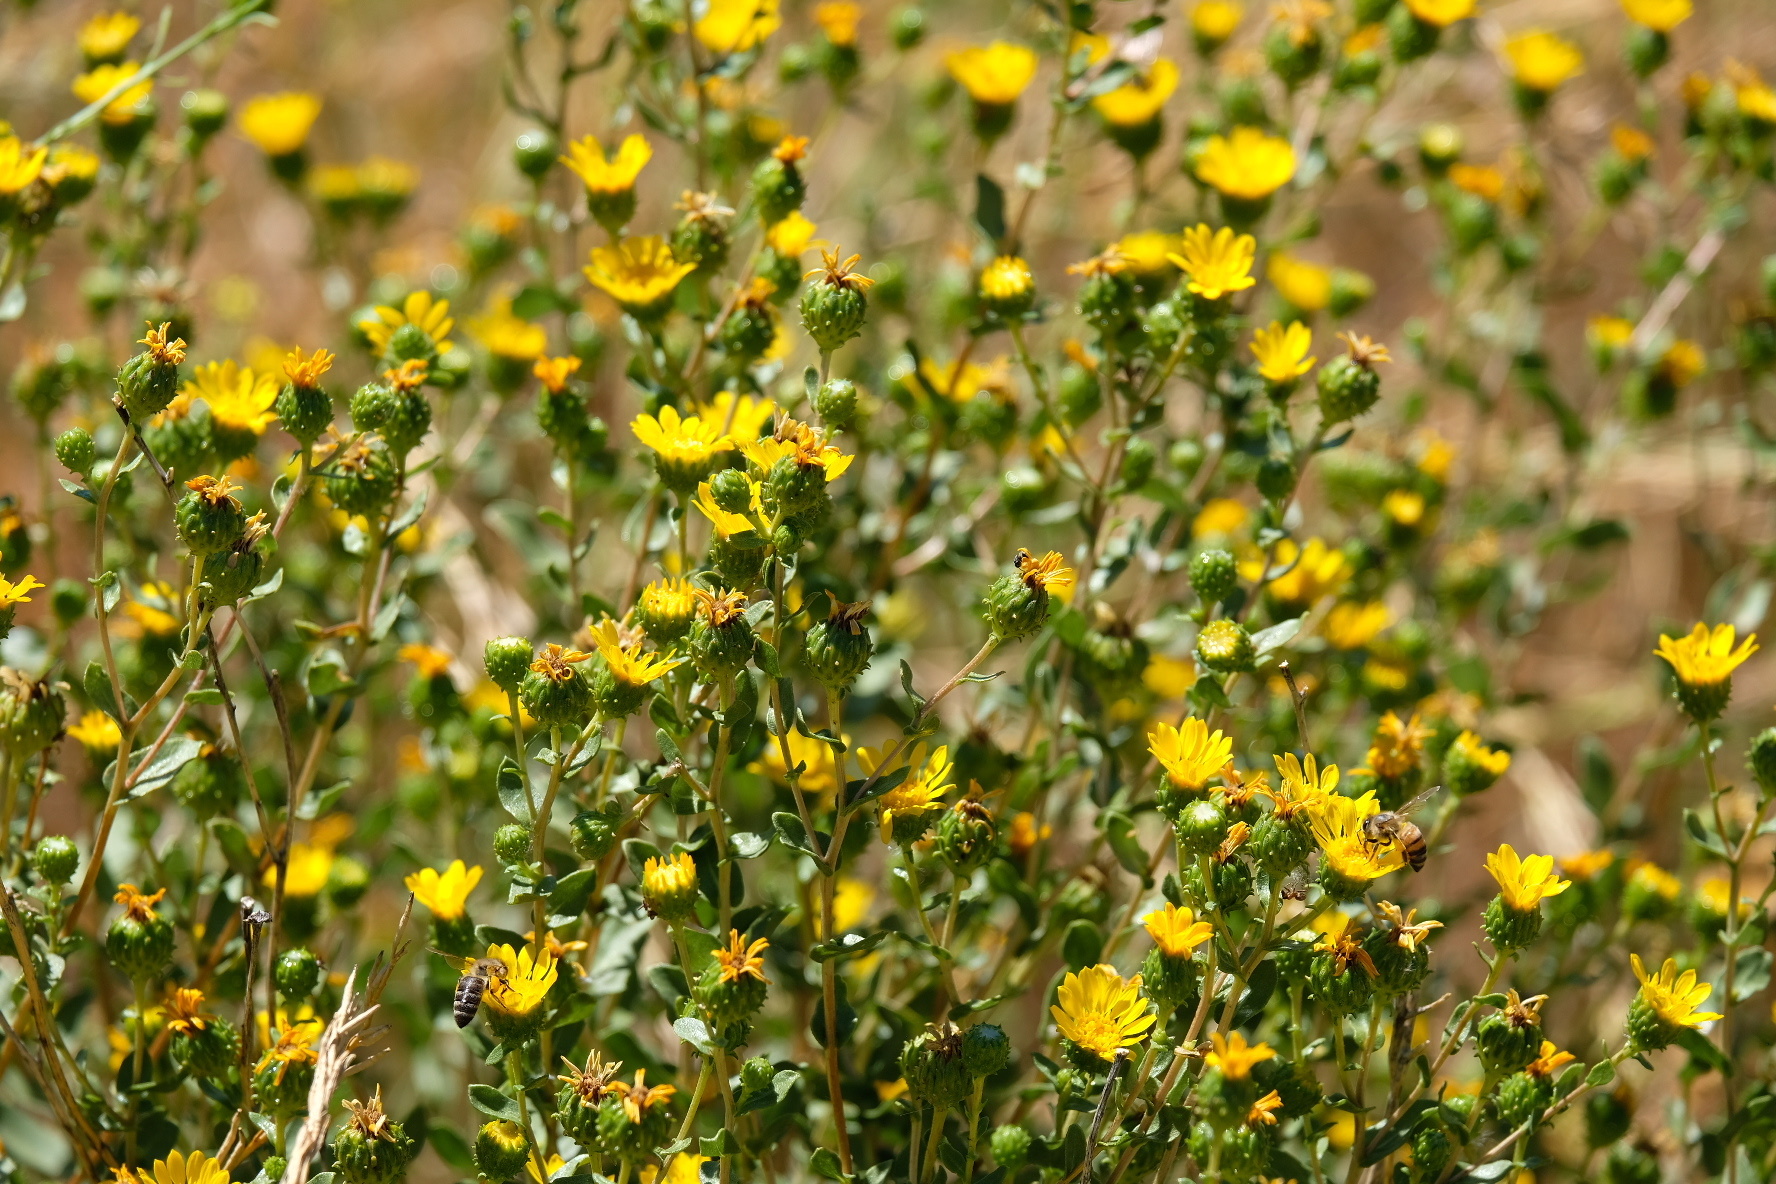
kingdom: Plantae
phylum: Tracheophyta
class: Magnoliopsida
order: Asterales
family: Asteraceae
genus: Grindelia
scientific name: Grindelia hirsutula
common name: Hairy gumweed
